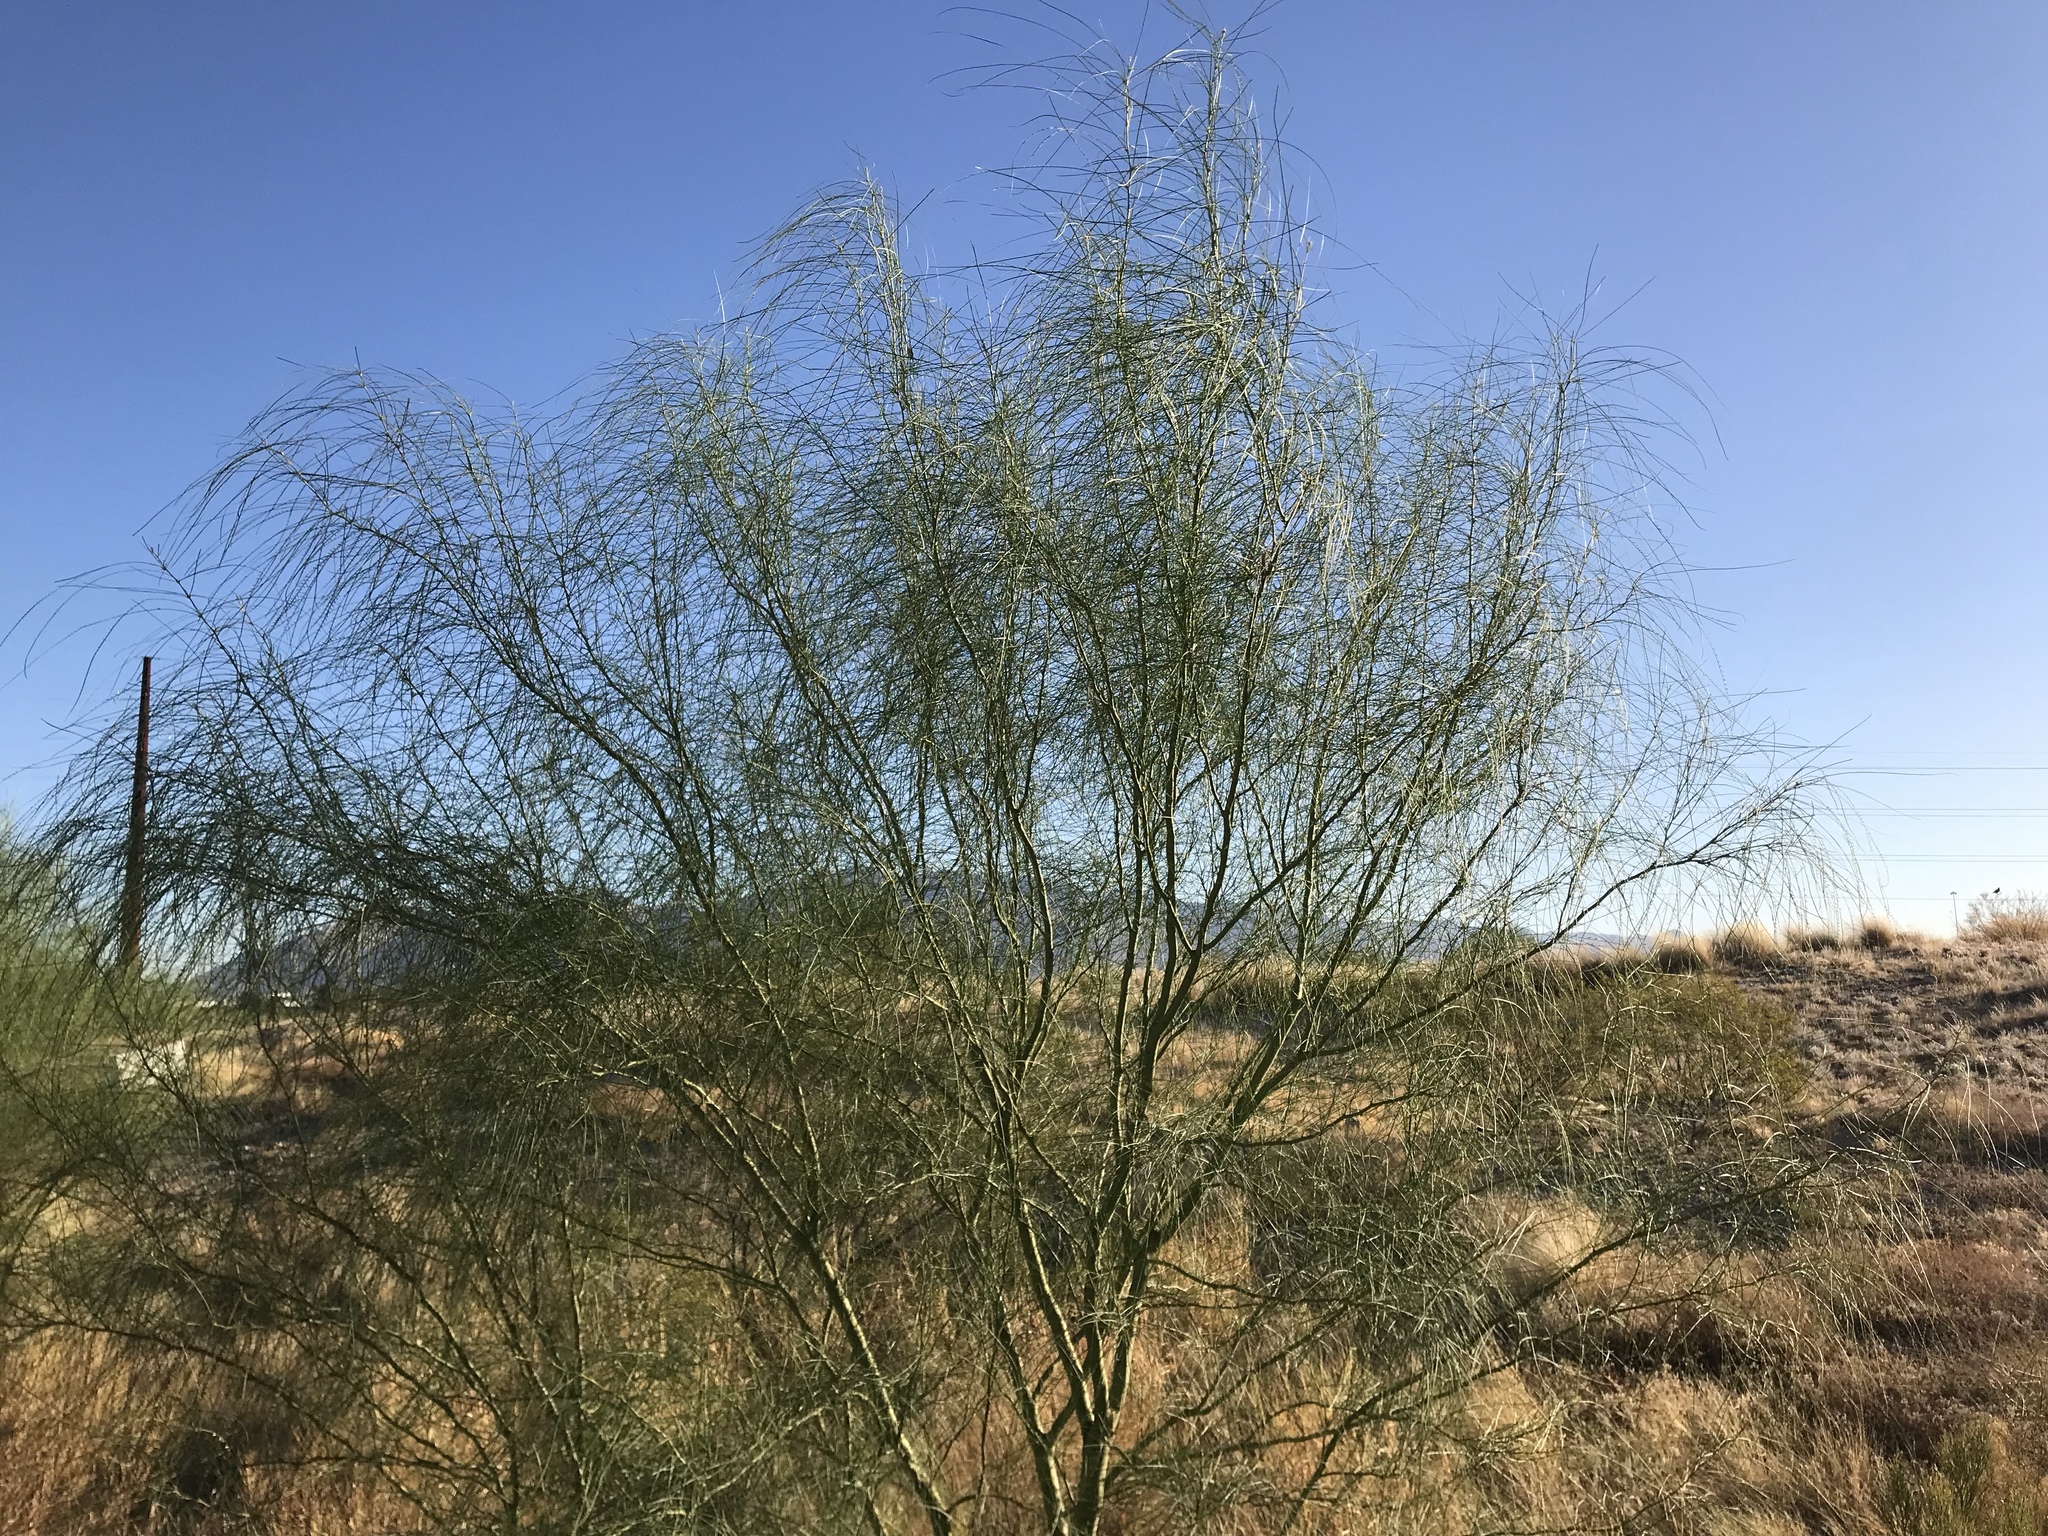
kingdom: Plantae
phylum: Tracheophyta
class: Magnoliopsida
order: Fabales
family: Fabaceae
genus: Parkinsonia
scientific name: Parkinsonia aculeata
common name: Jerusalem thorn
